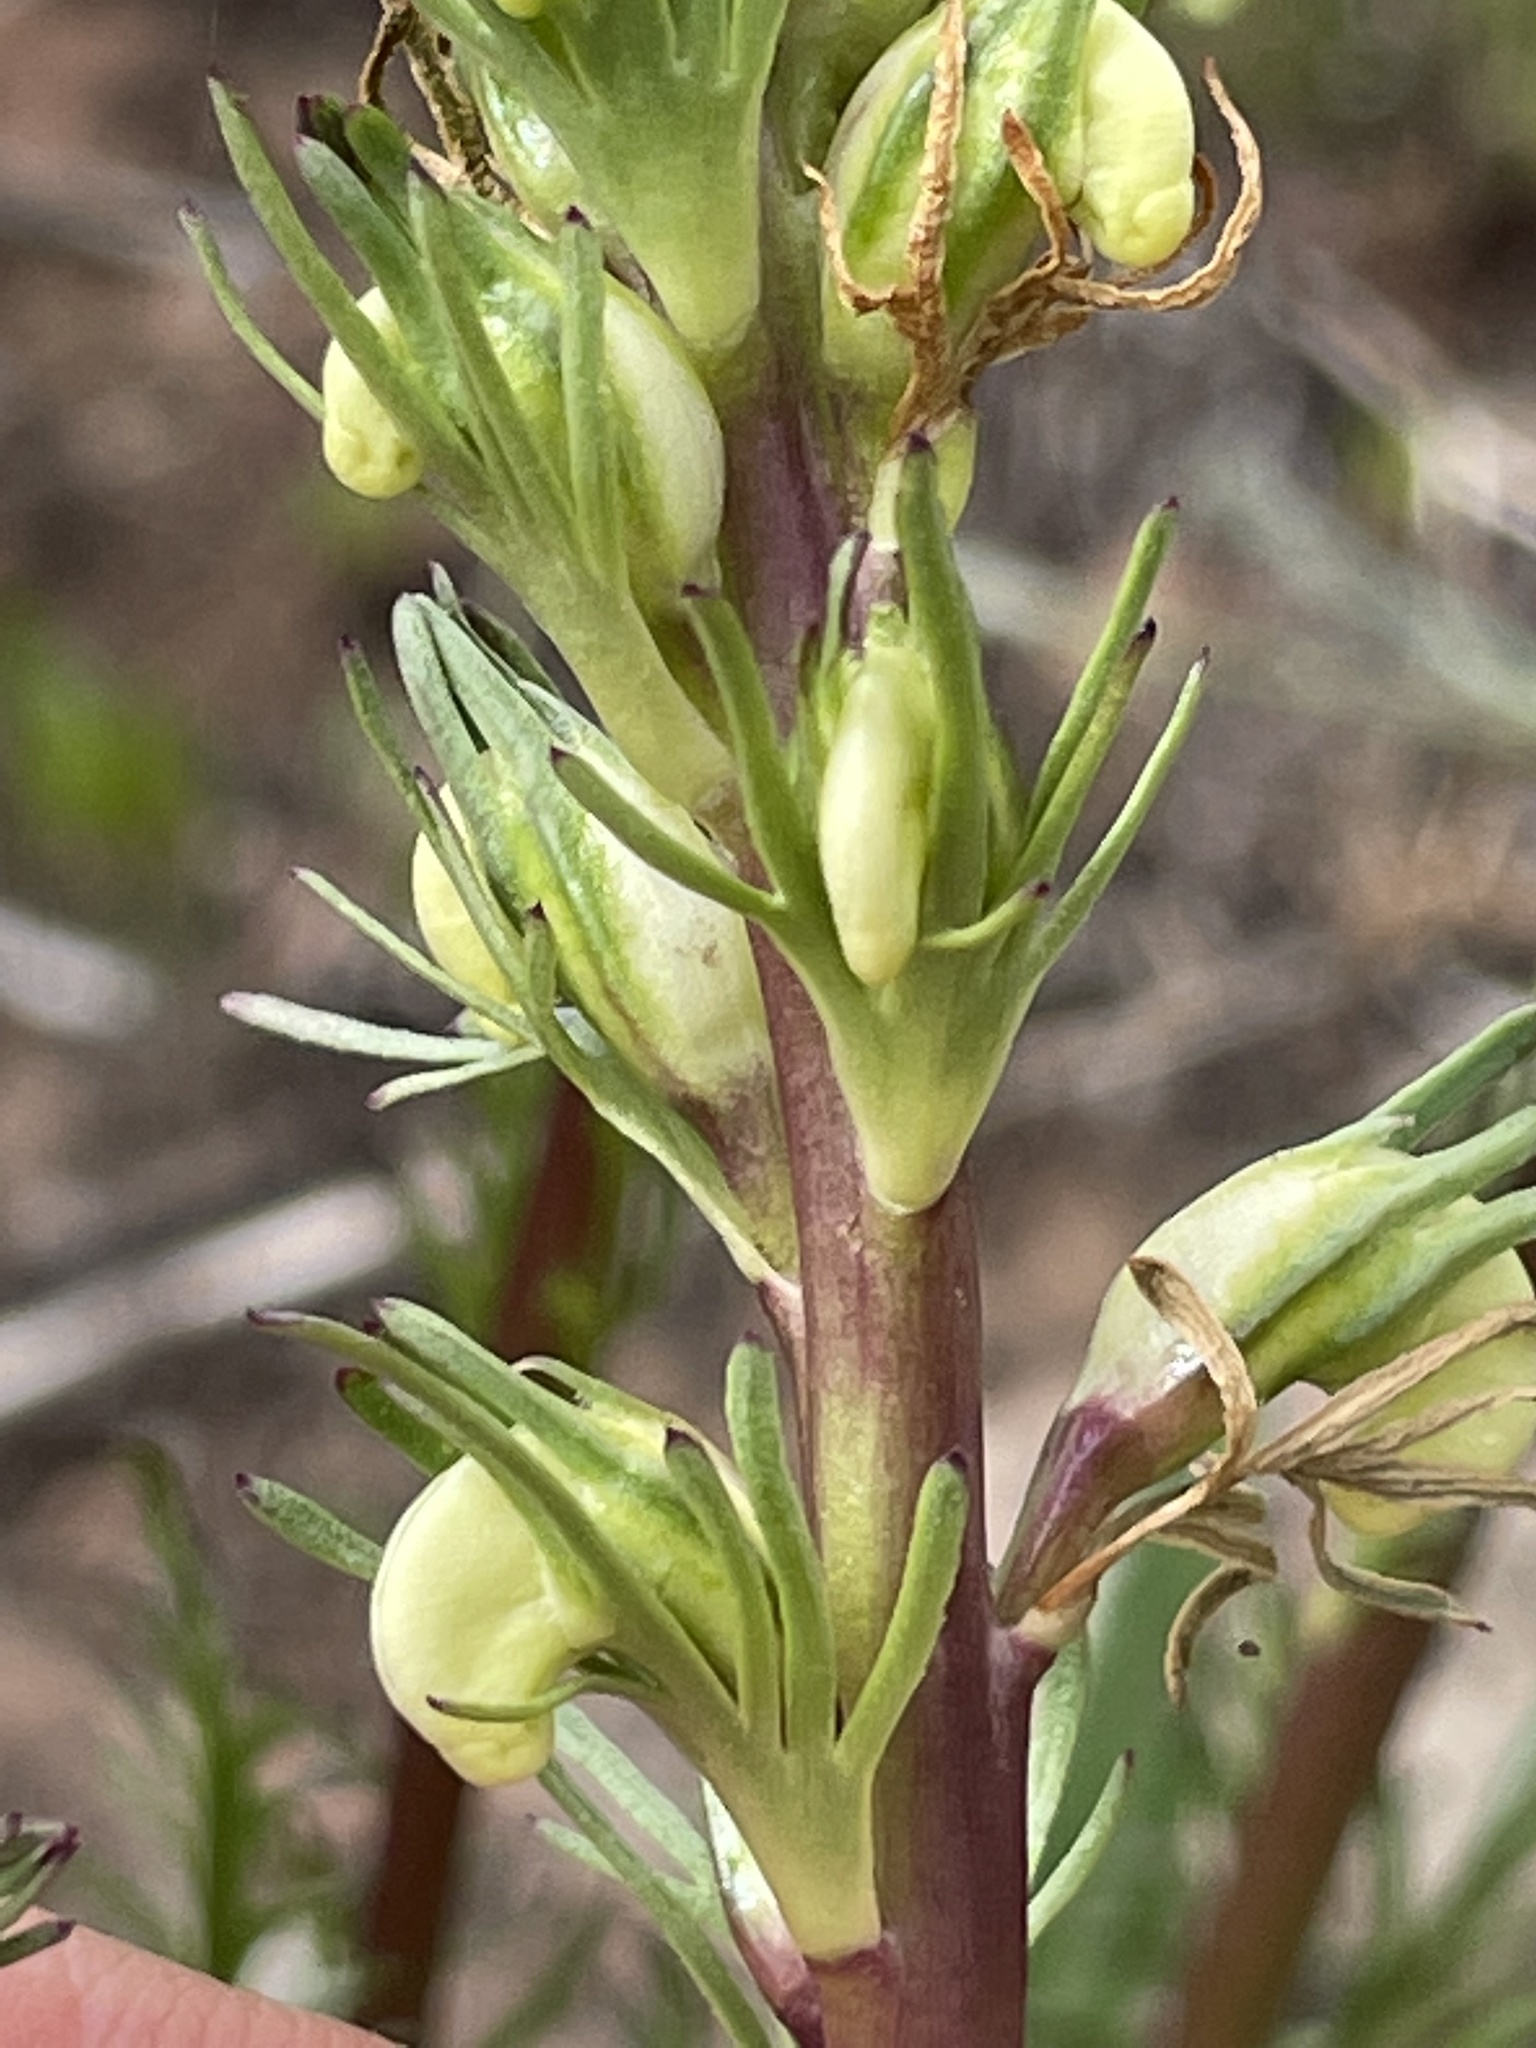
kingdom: Plantae
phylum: Tracheophyta
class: Magnoliopsida
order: Lamiales
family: Orobanchaceae
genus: Pedicularis
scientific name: Pedicularis contorta
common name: Coiled lousewort
